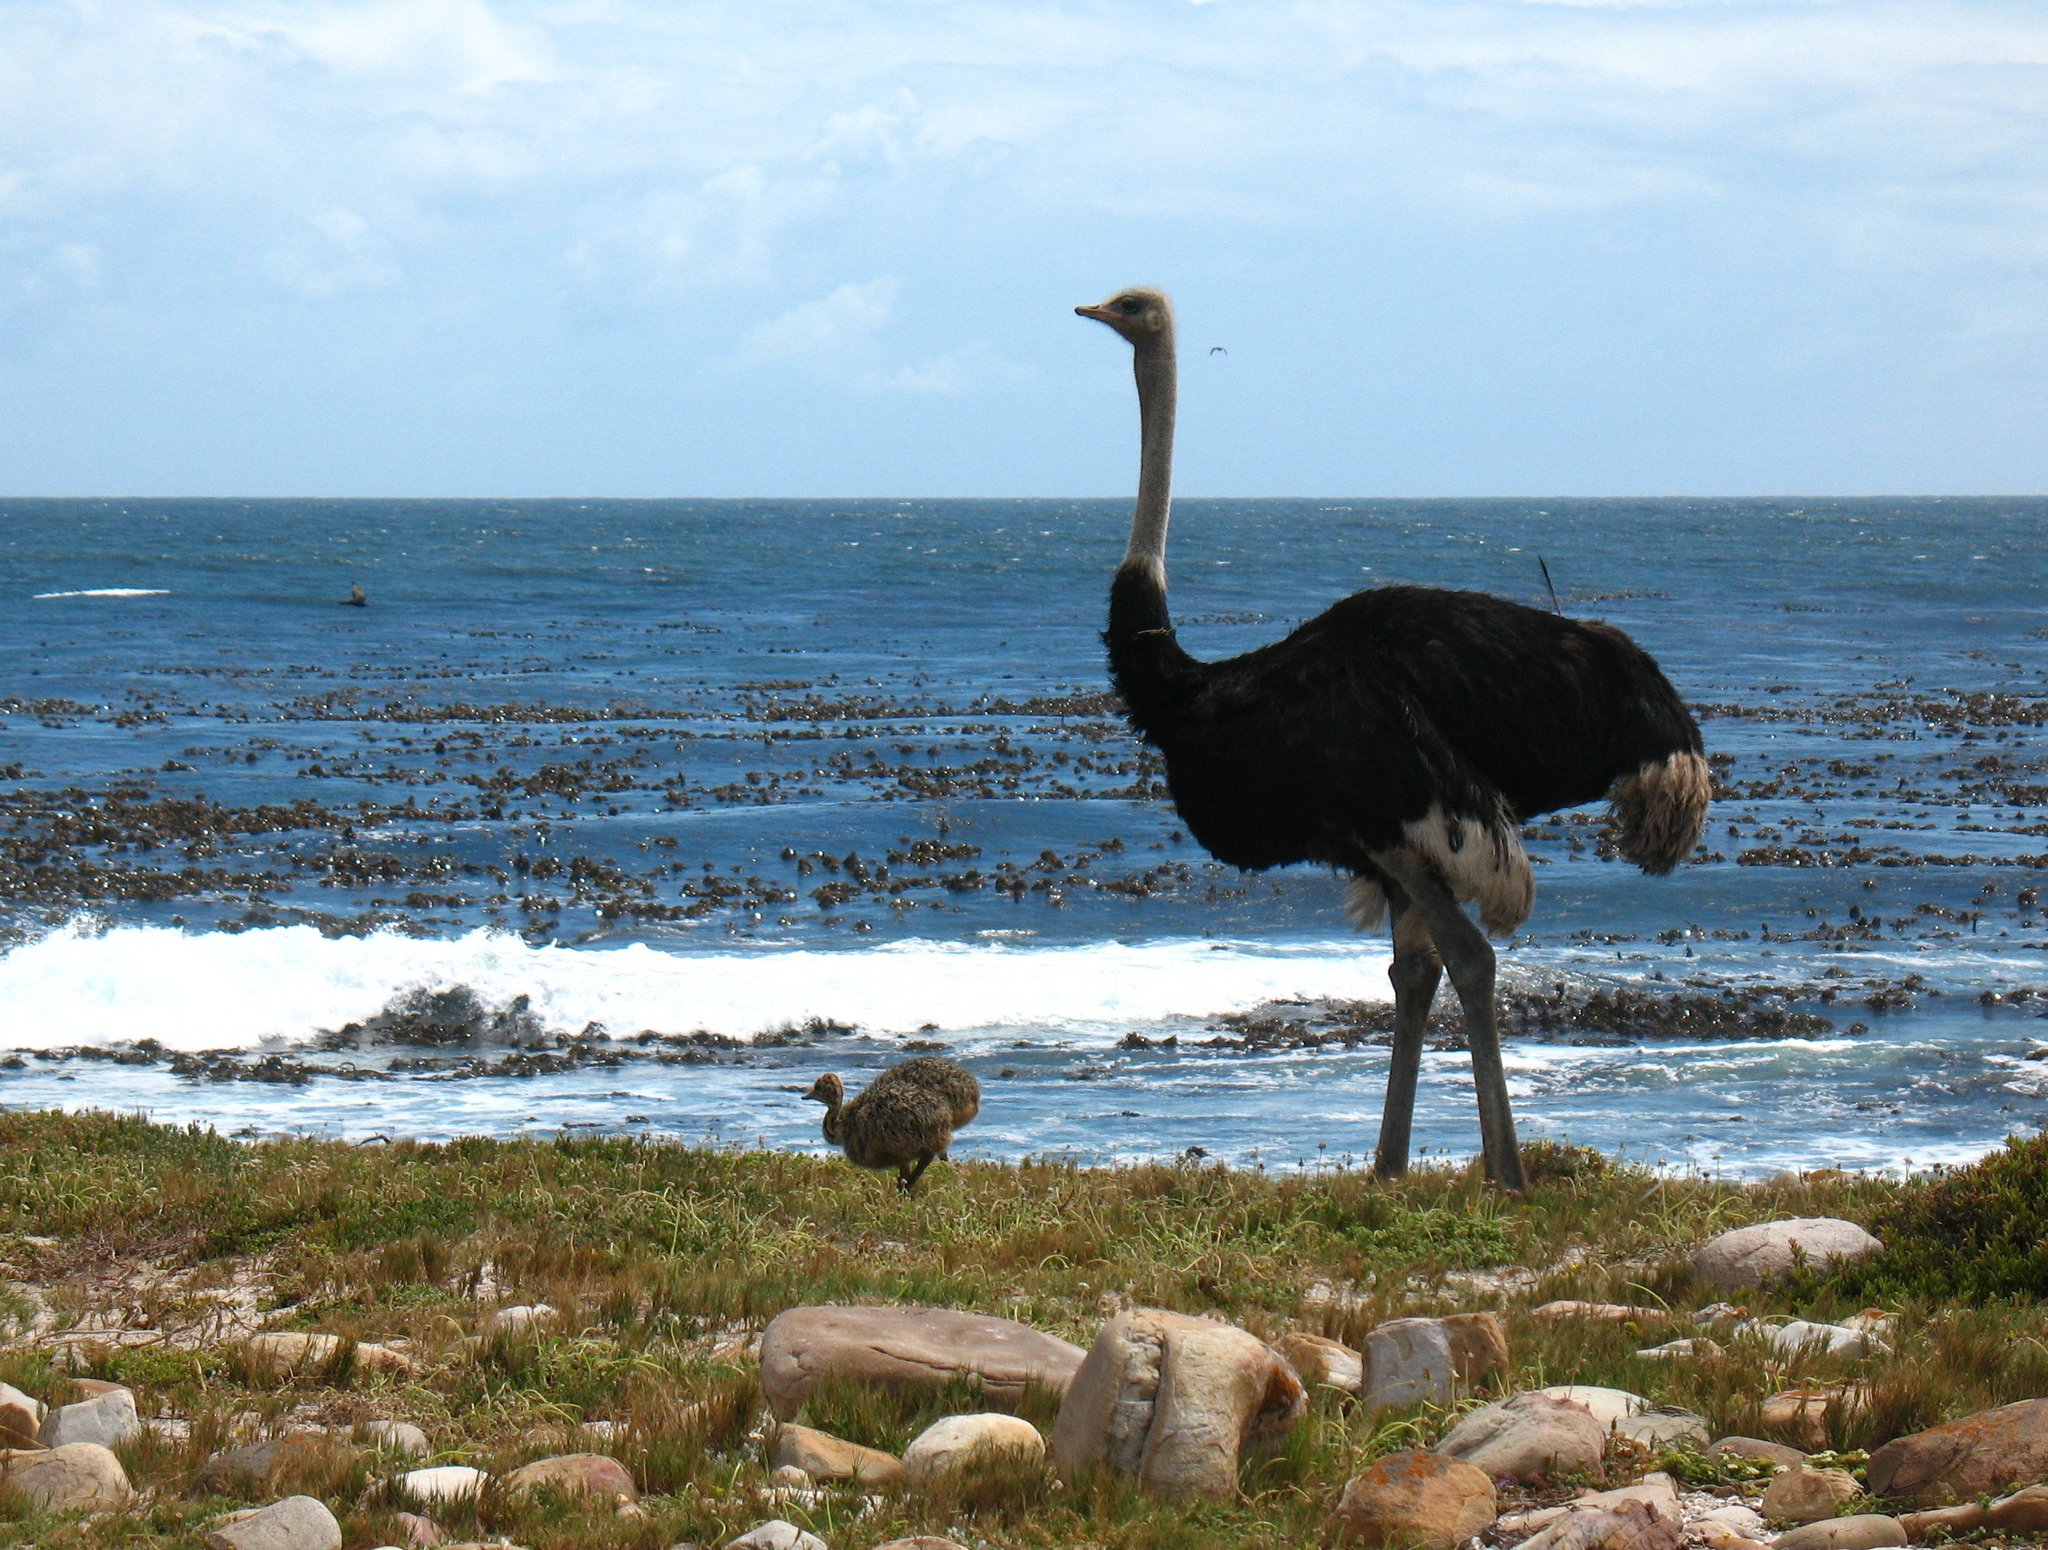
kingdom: Animalia
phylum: Chordata
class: Aves
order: Struthioniformes
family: Struthionidae
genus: Struthio
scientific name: Struthio camelus
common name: Common ostrich
